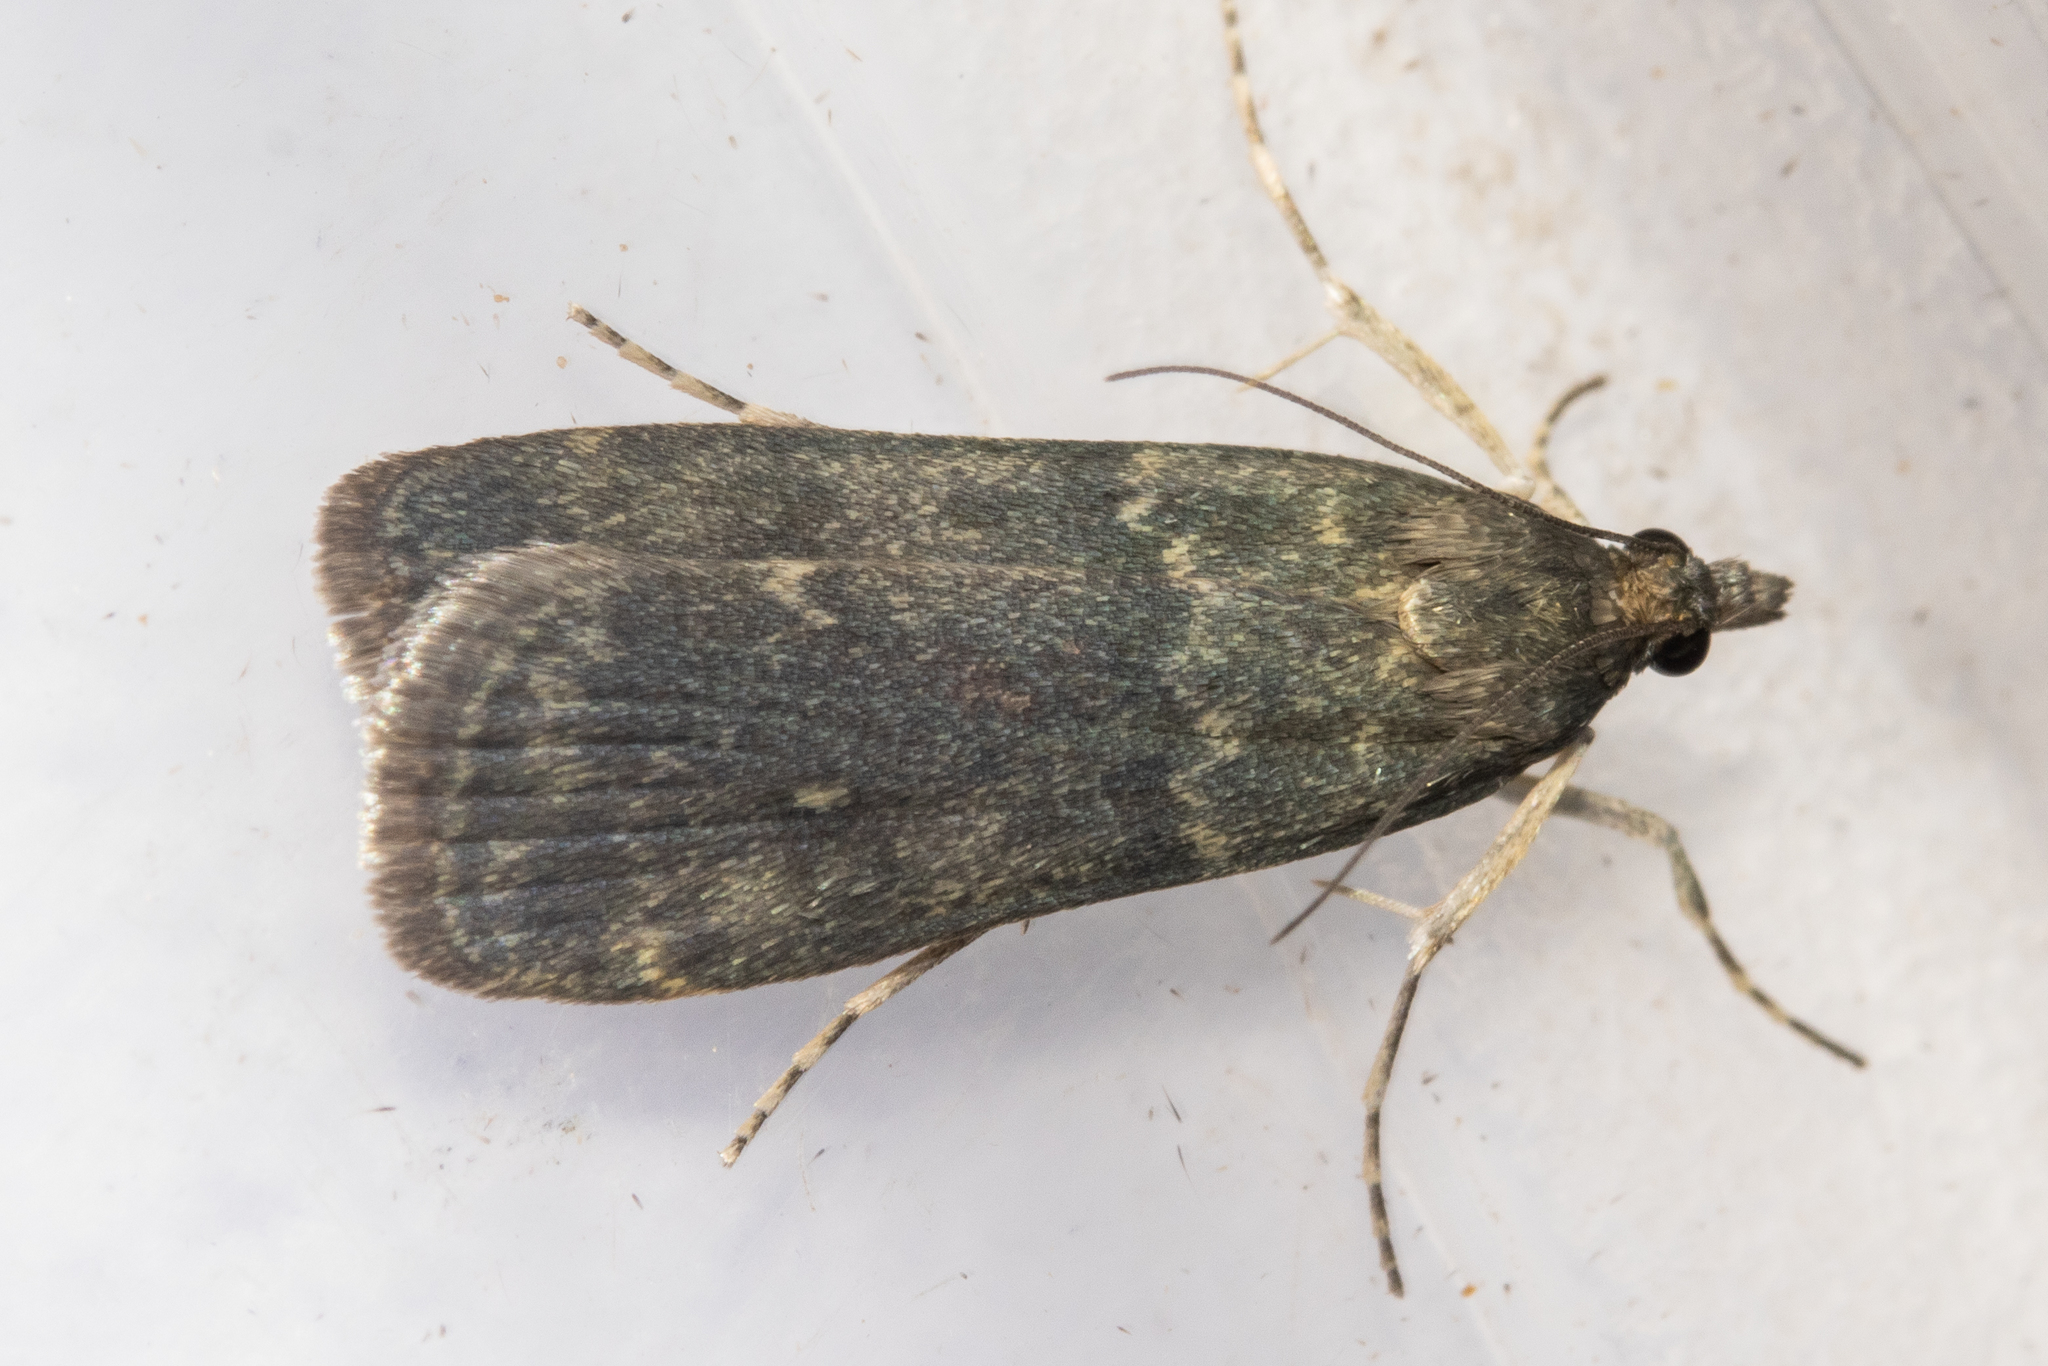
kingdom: Animalia
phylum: Arthropoda
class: Insecta
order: Lepidoptera
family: Crambidae
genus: Eudonia
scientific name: Eudonia cataxesta
